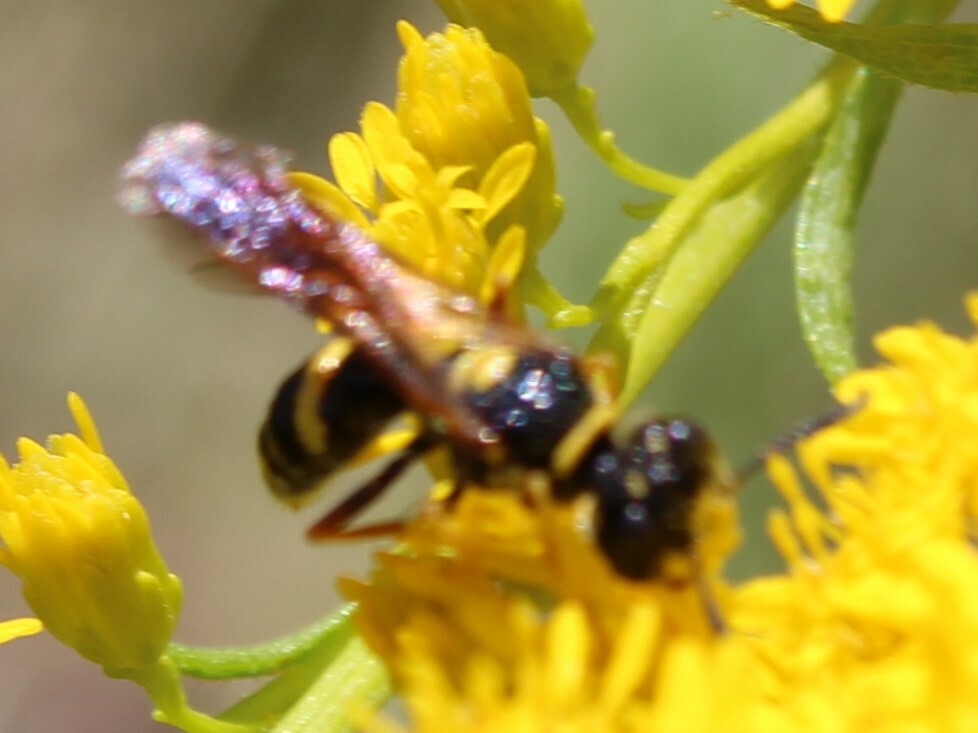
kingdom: Animalia
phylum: Arthropoda
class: Insecta
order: Hymenoptera
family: Crabronidae
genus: Philanthus
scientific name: Philanthus gibbosus
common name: Humped beewolf
